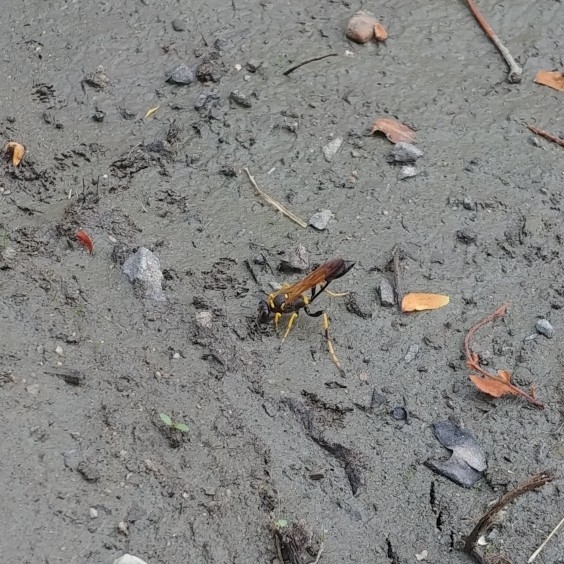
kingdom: Animalia
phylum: Arthropoda
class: Insecta
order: Hymenoptera
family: Sphecidae
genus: Sceliphron
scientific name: Sceliphron caementarium
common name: Mud dauber
